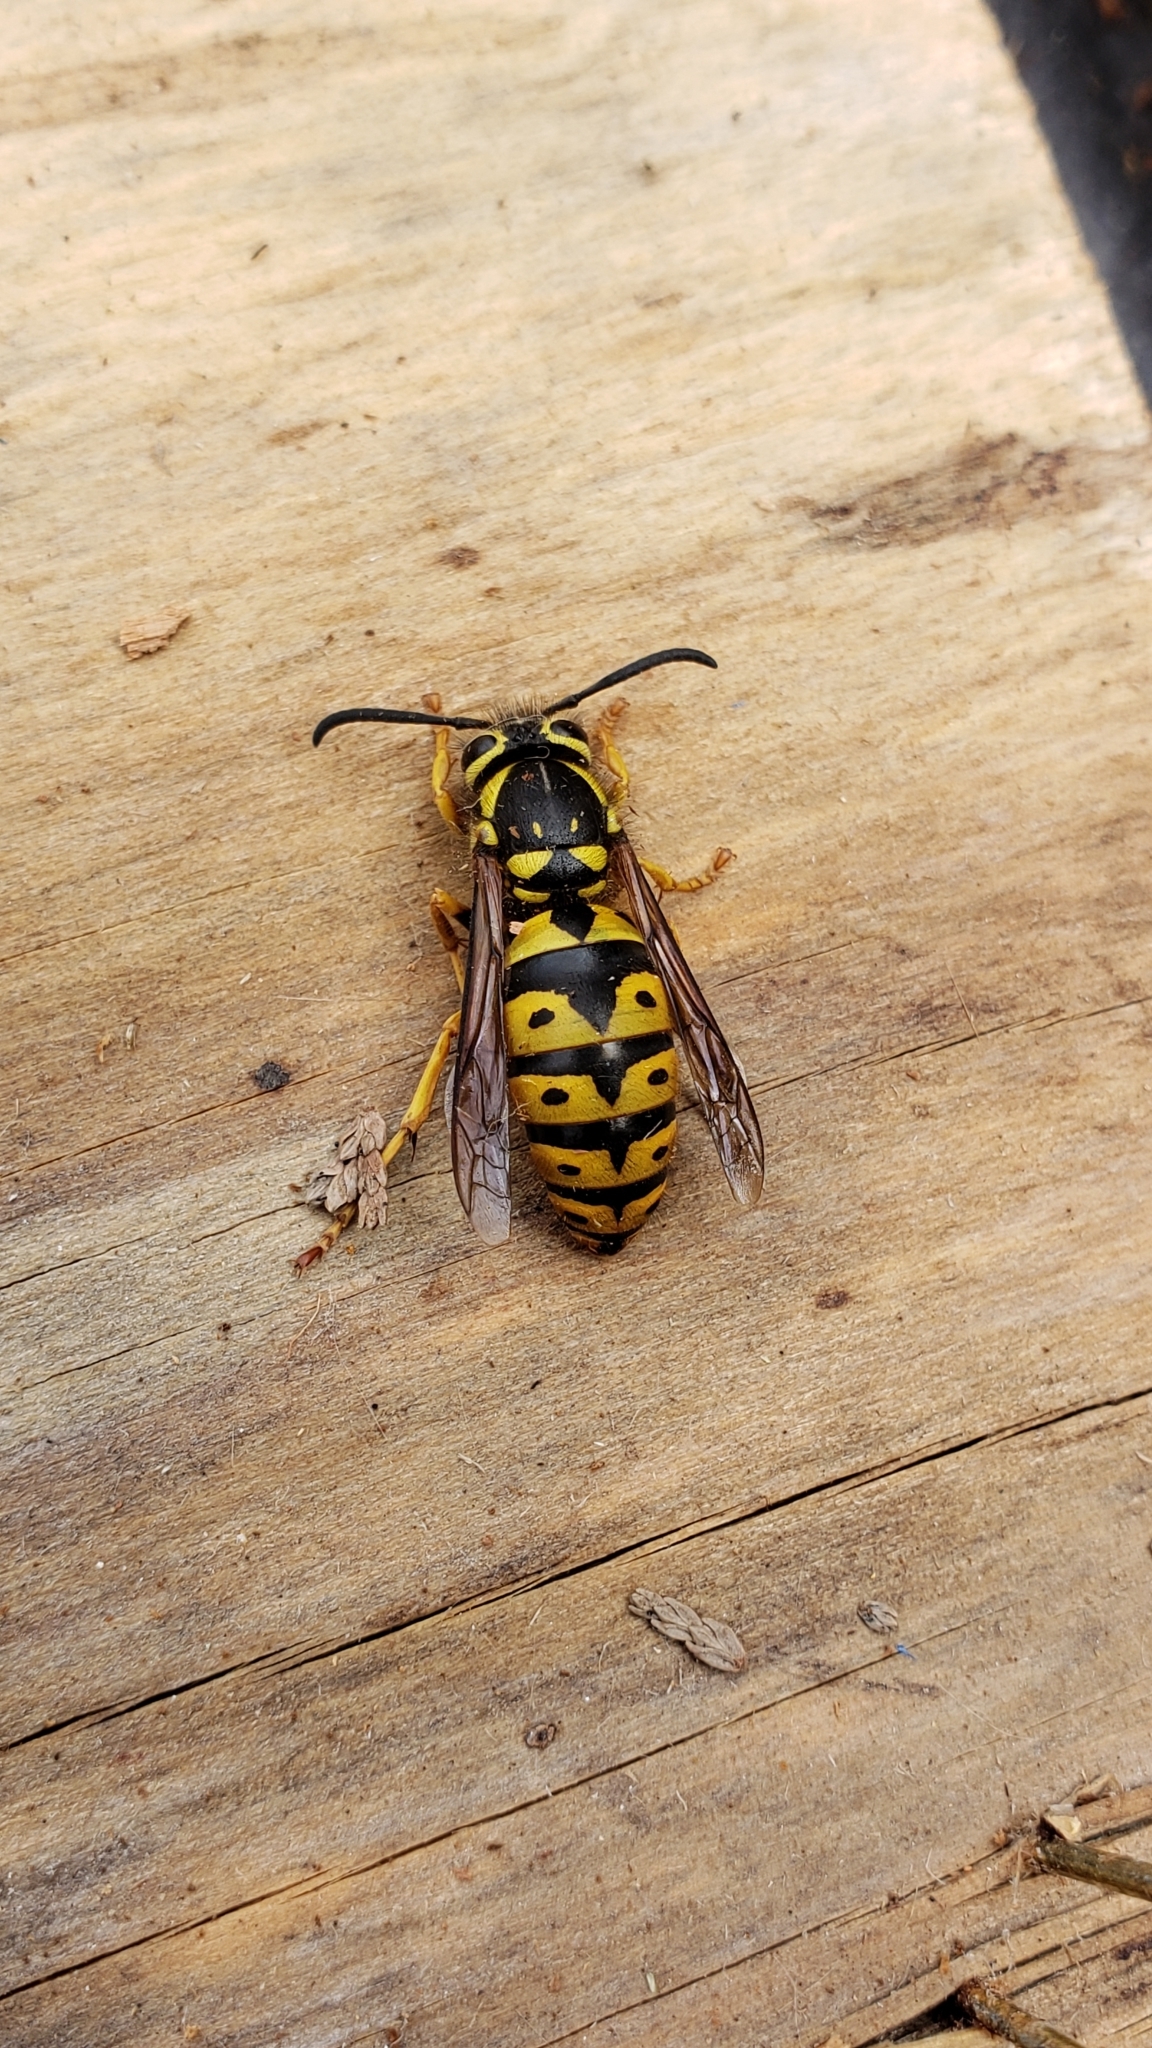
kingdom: Animalia
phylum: Arthropoda
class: Insecta
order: Hymenoptera
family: Vespidae
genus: Vespula
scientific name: Vespula pensylvanica
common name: Western yellowjacket
